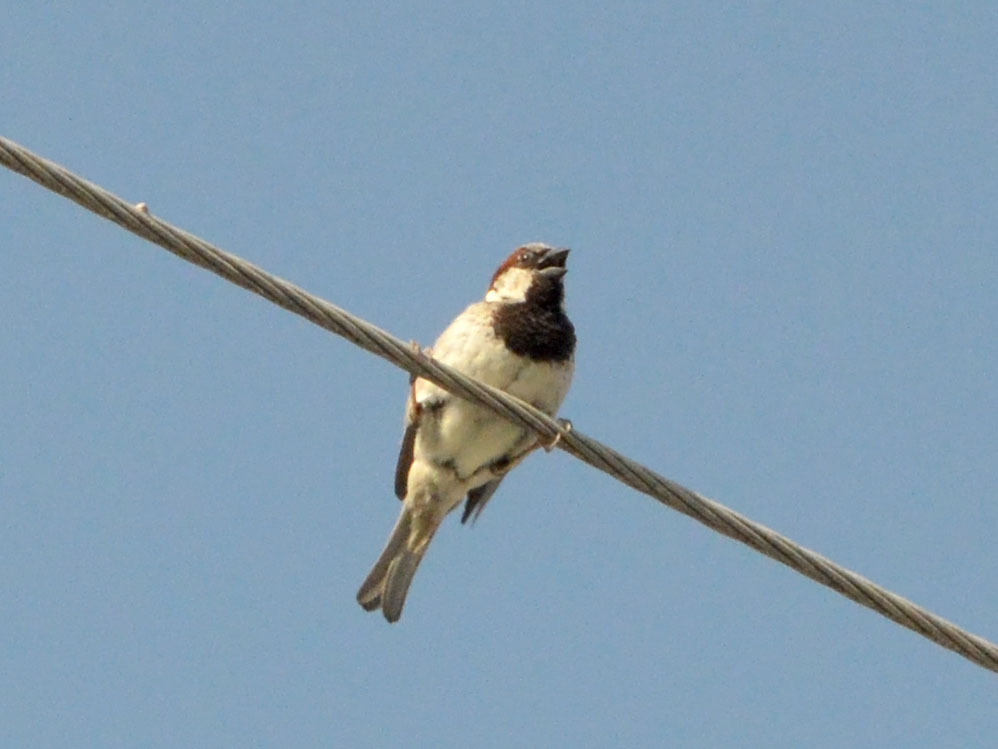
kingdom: Animalia
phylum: Chordata
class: Aves
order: Passeriformes
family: Passeridae
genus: Passer
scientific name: Passer domesticus
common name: House sparrow
